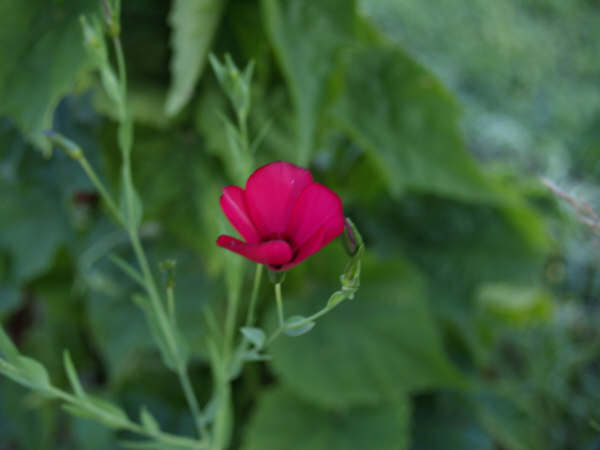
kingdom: Plantae
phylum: Tracheophyta
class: Magnoliopsida
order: Malpighiales
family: Linaceae
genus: Linum
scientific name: Linum grandiflorum
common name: Crimson flax
